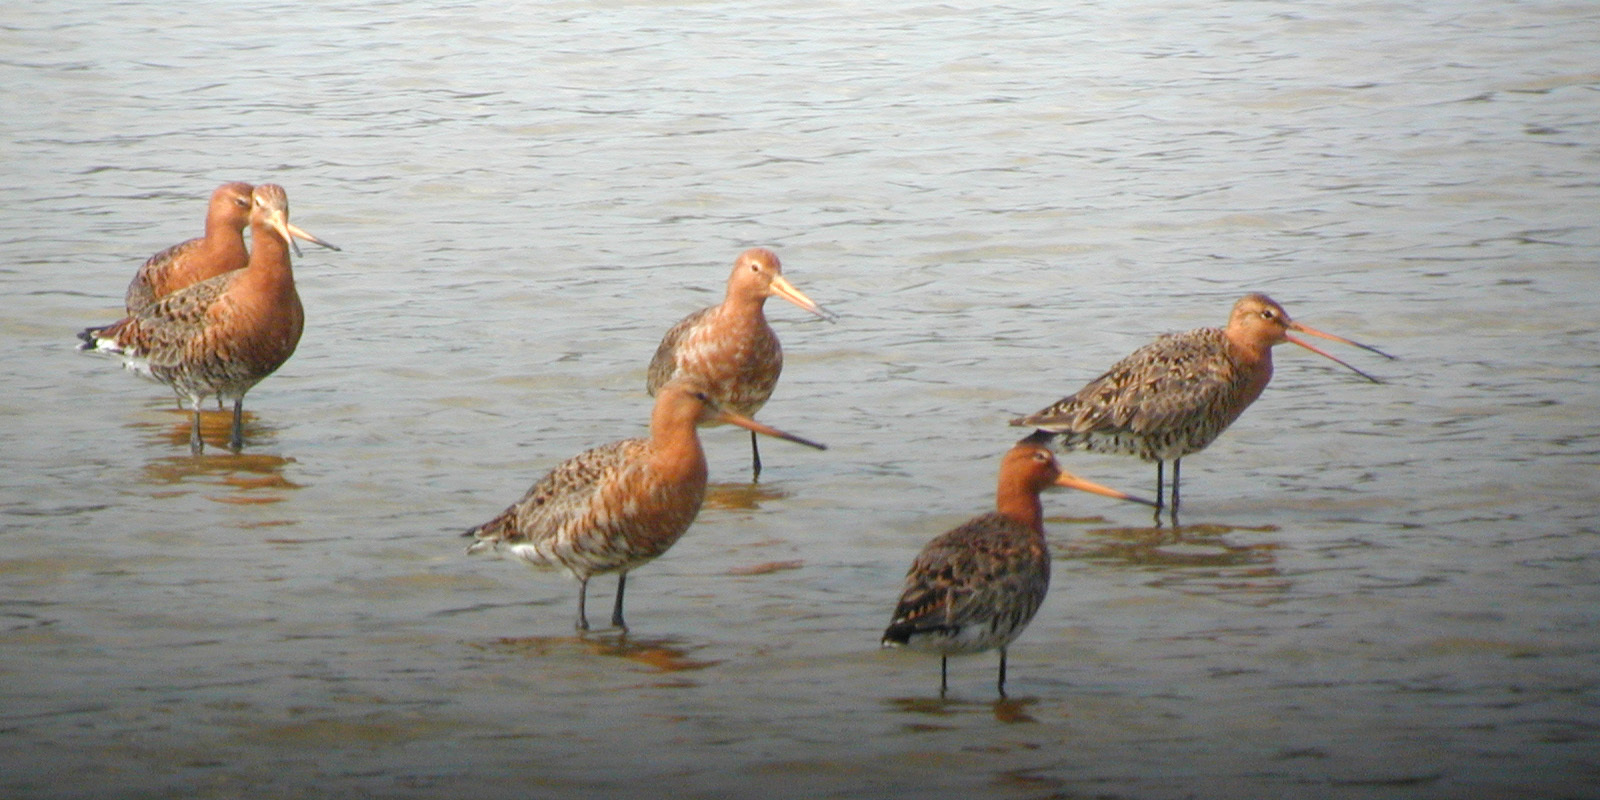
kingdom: Animalia
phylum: Chordata
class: Aves
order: Charadriiformes
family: Scolopacidae
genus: Limosa
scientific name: Limosa limosa
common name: Black-tailed godwit
